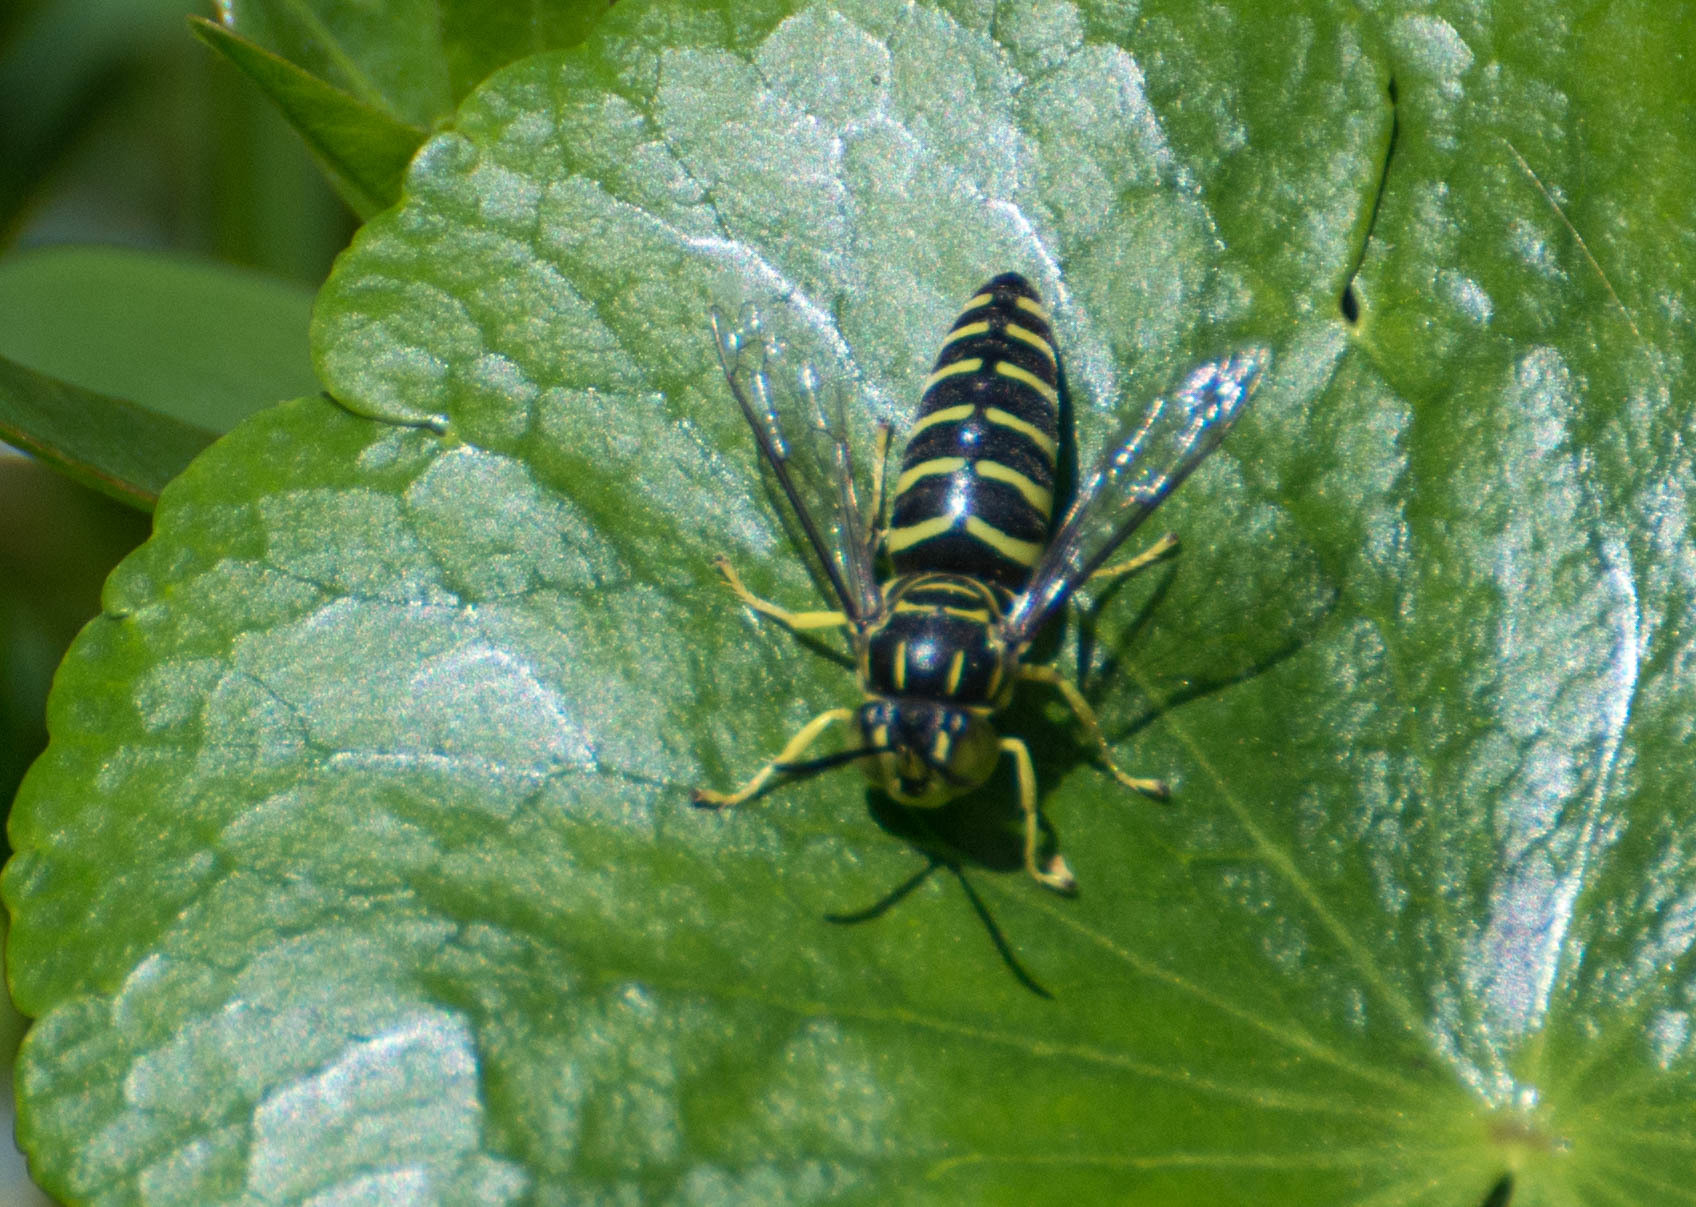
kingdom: Animalia
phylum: Arthropoda
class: Insecta
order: Hymenoptera
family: Crabronidae
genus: Bicyrtes
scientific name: Bicyrtes variegatus
